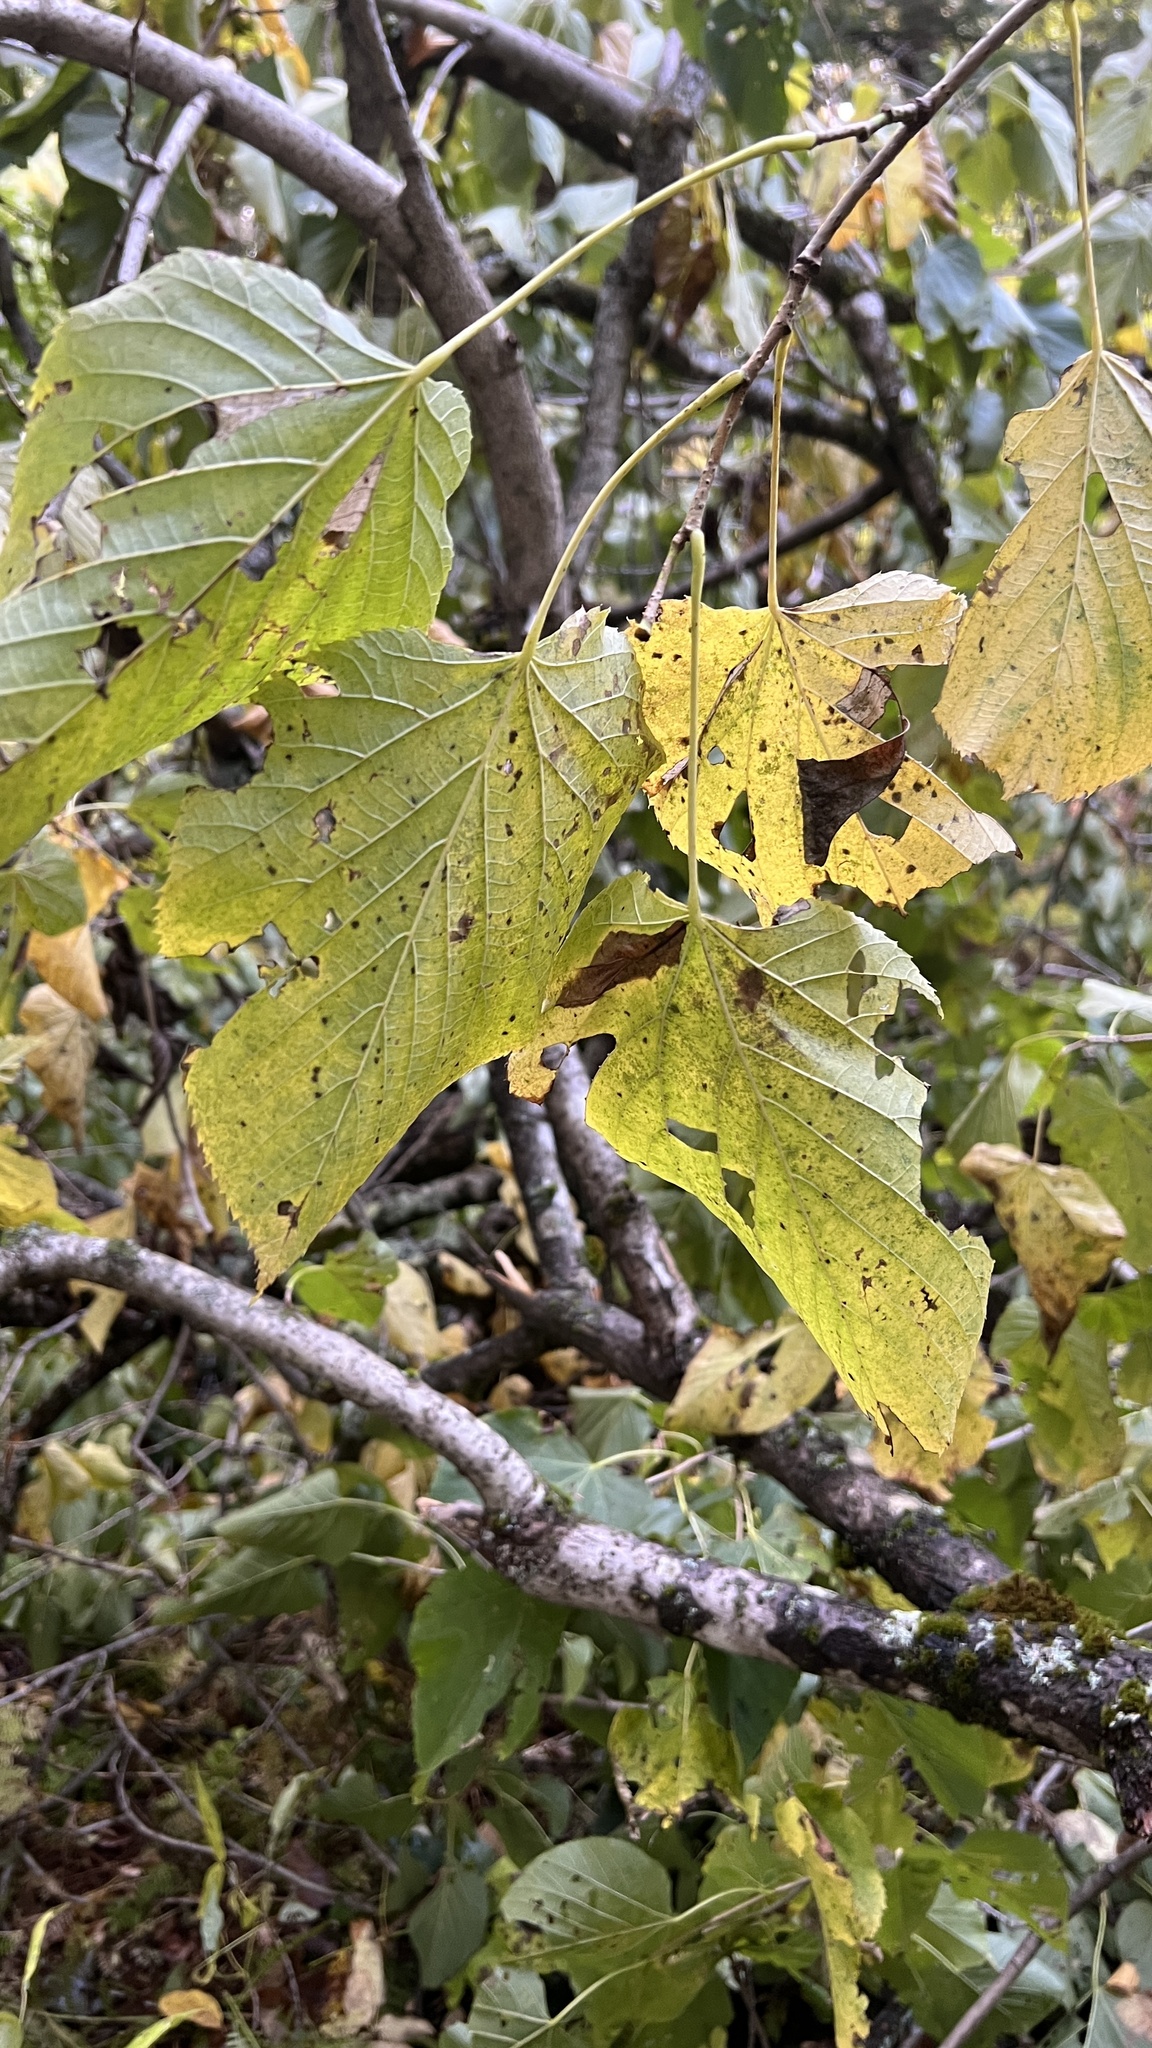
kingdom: Plantae
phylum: Tracheophyta
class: Magnoliopsida
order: Malvales
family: Malvaceae
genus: Tilia
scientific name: Tilia americana
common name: Basswood
